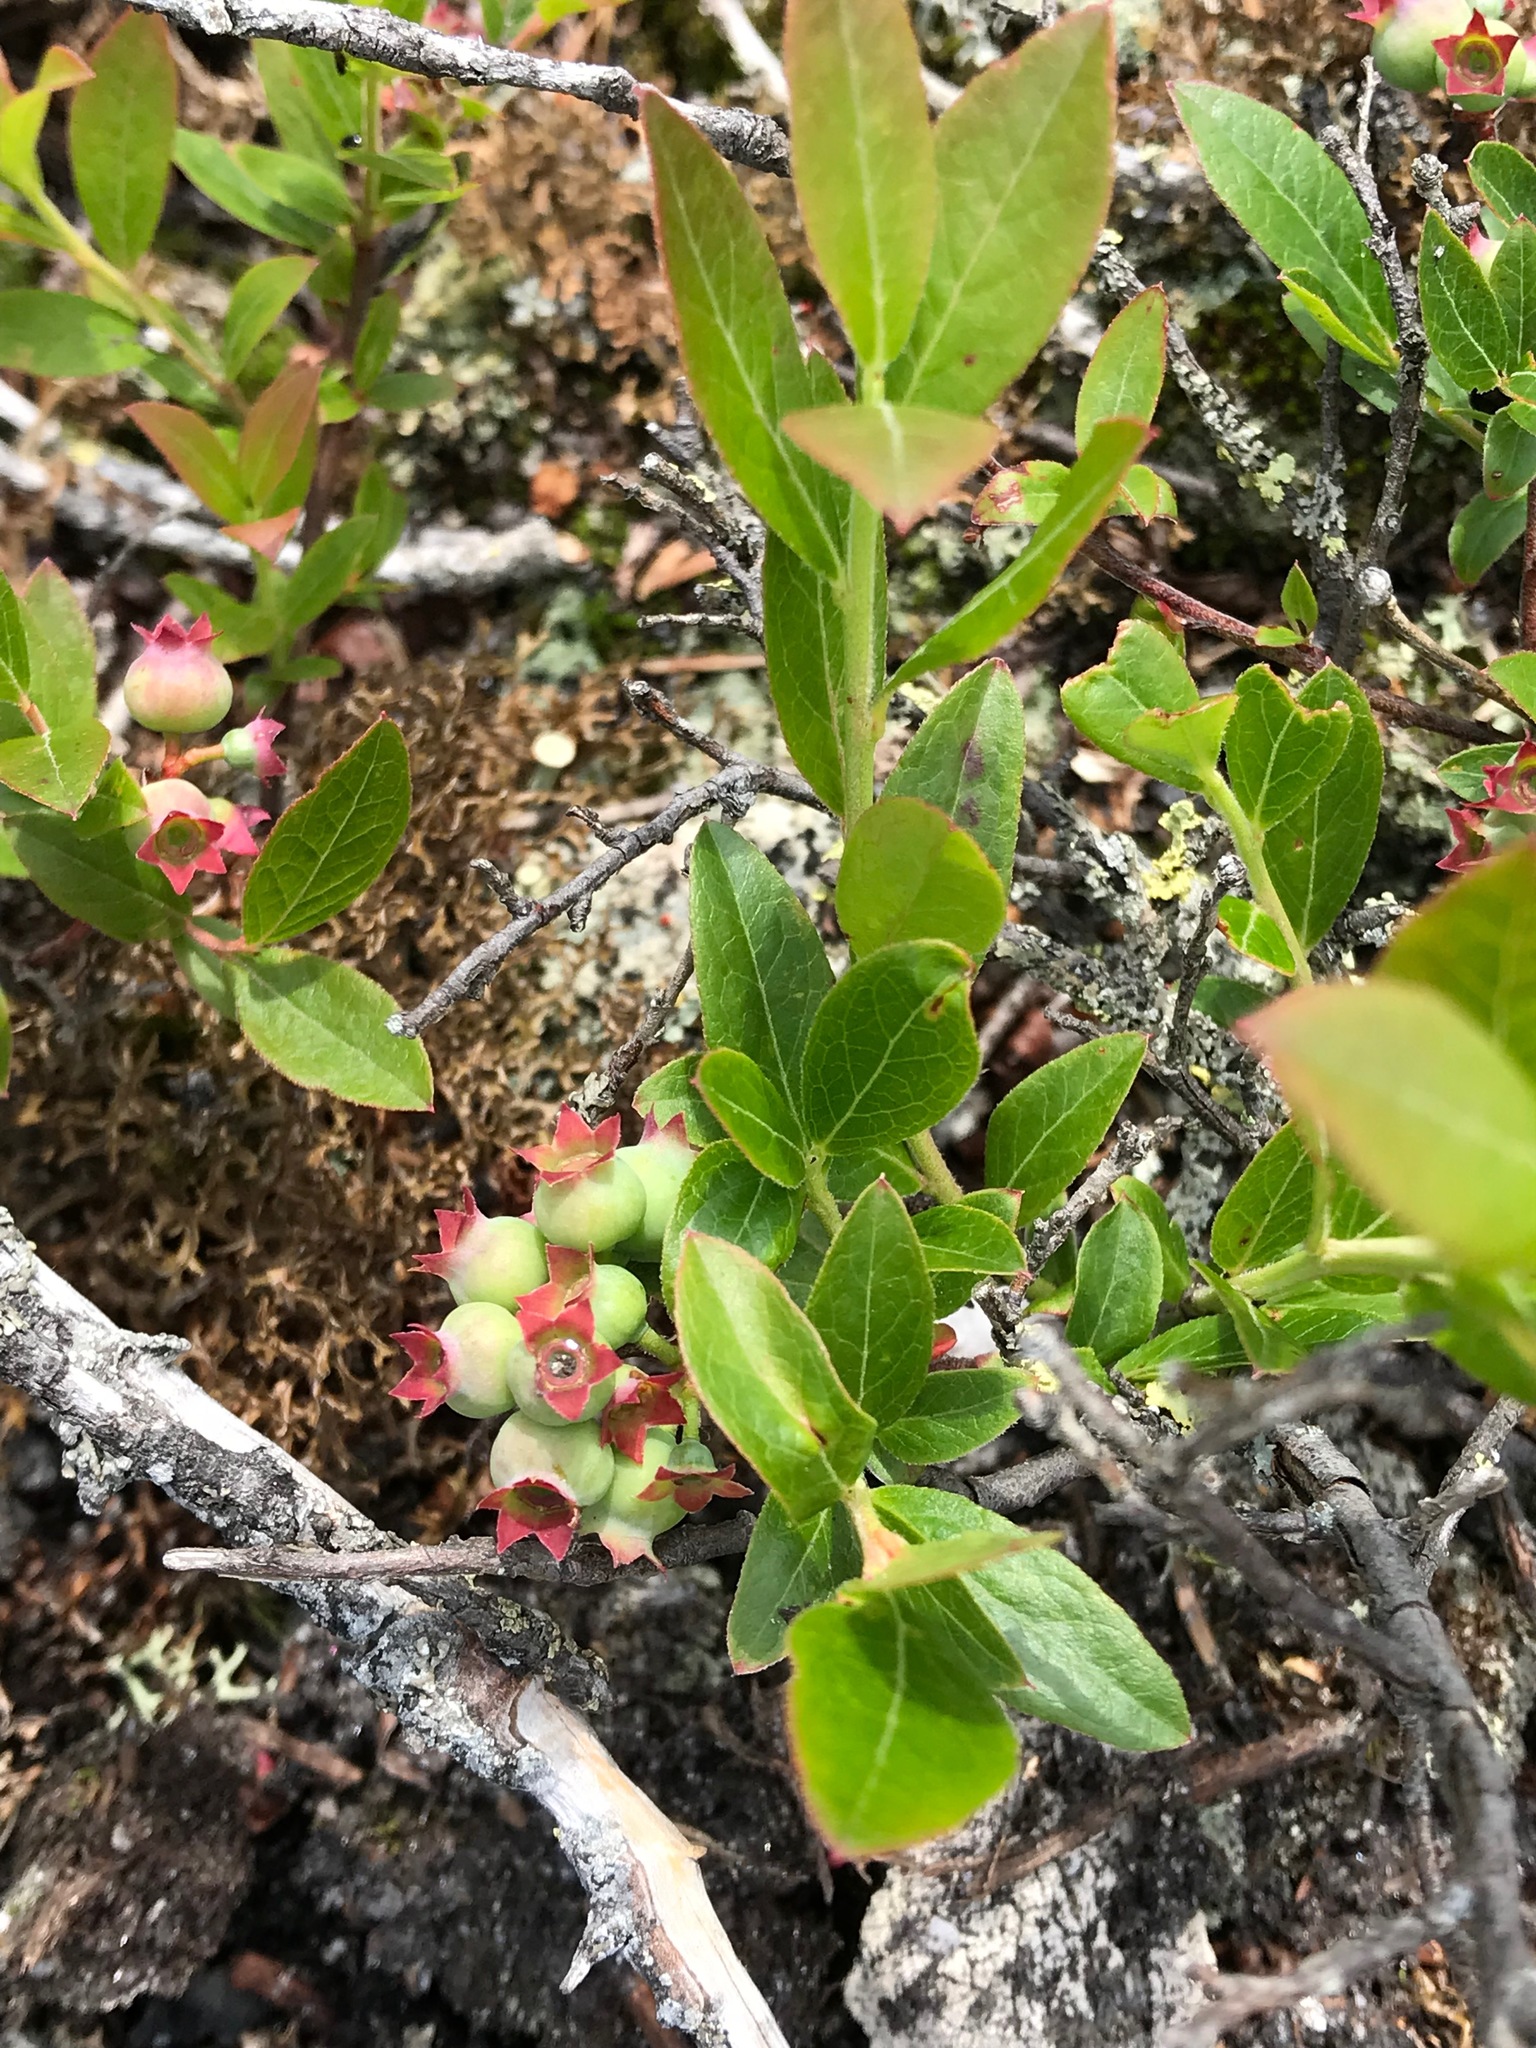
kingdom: Plantae
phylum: Tracheophyta
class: Magnoliopsida
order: Ericales
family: Ericaceae
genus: Vaccinium
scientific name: Vaccinium angustifolium
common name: Early lowbush blueberry
